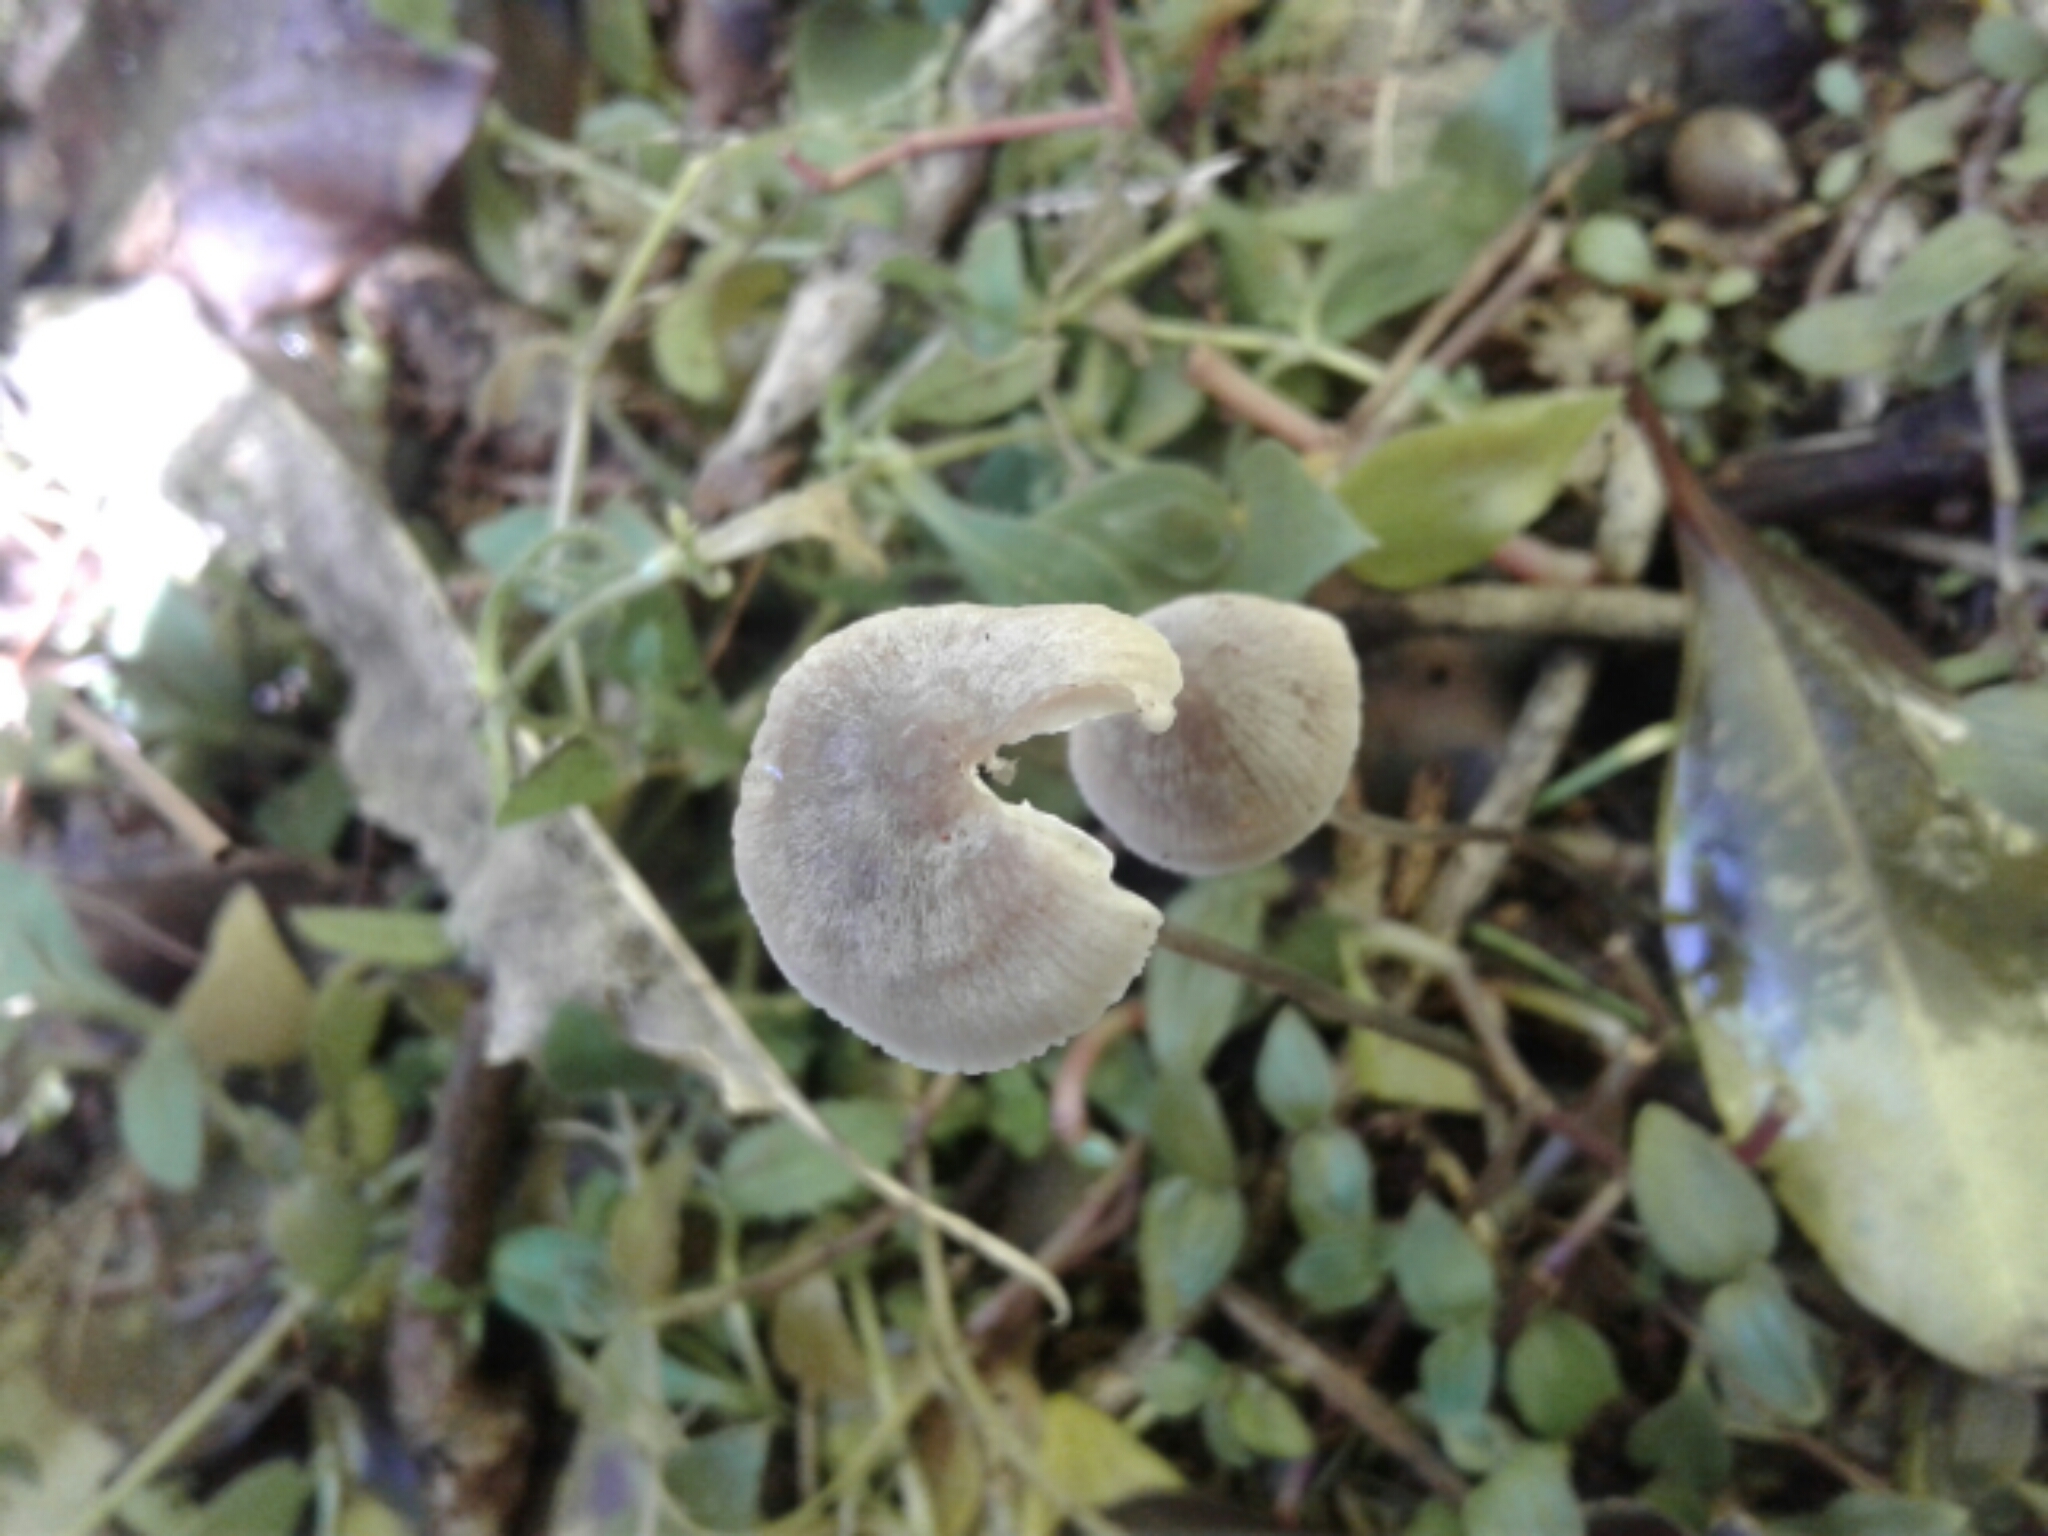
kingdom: Fungi
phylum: Basidiomycota
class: Agaricomycetes
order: Agaricales
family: Mycenaceae
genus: Mycena
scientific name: Mycena
